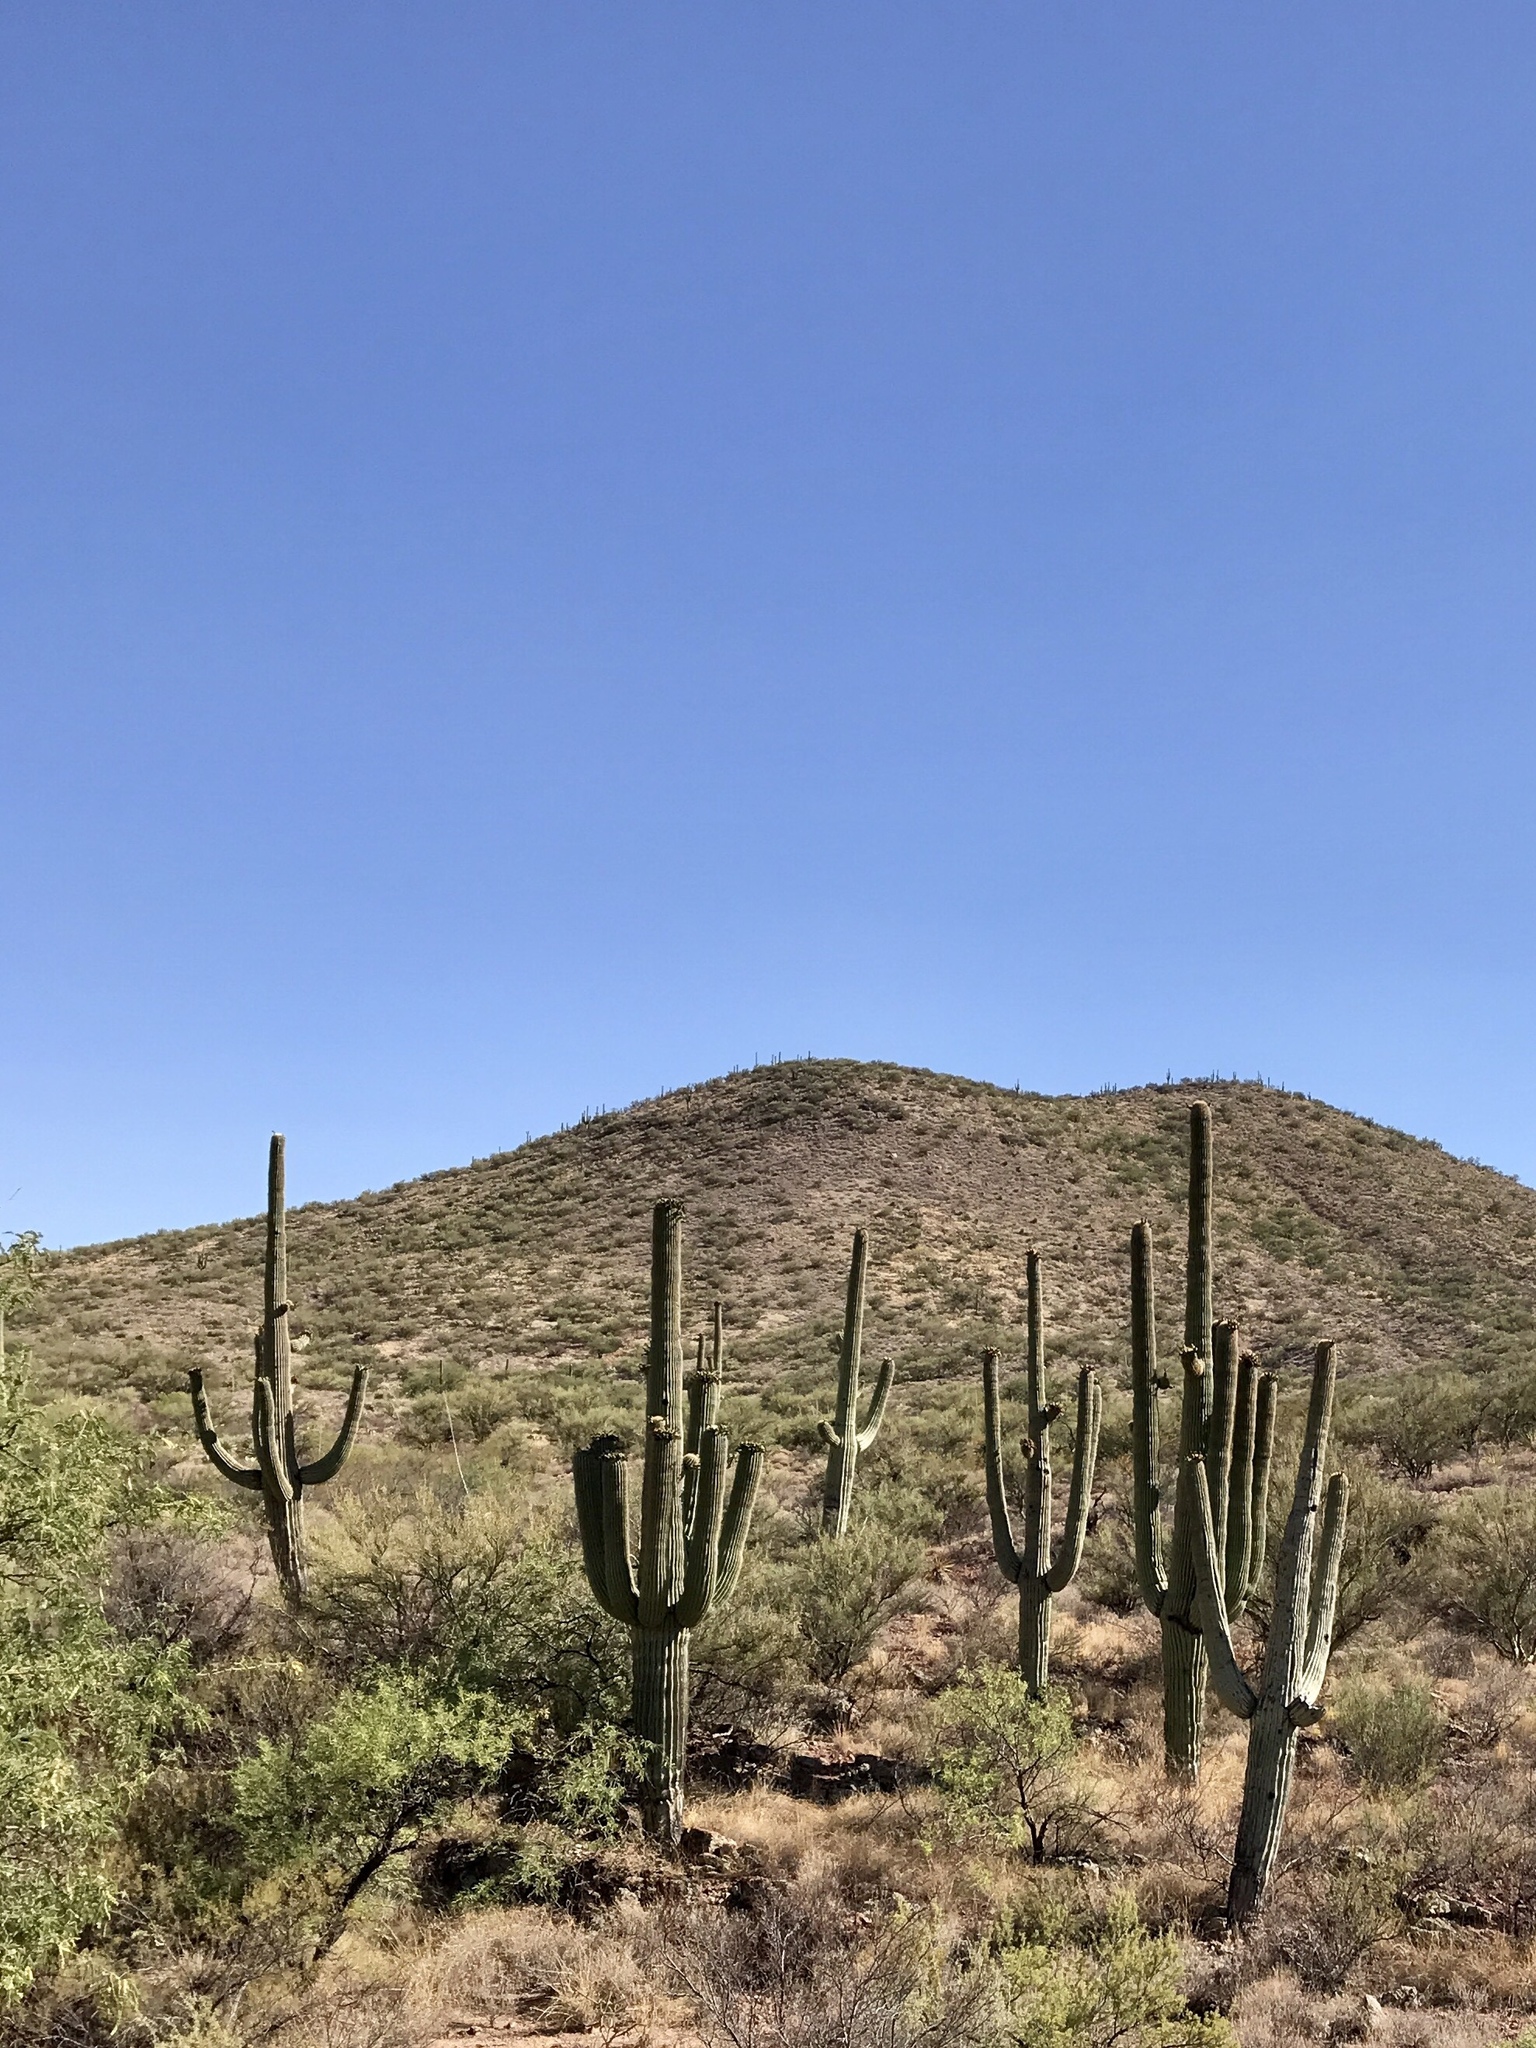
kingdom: Plantae
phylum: Tracheophyta
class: Magnoliopsida
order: Caryophyllales
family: Cactaceae
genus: Carnegiea
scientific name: Carnegiea gigantea
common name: Saguaro
